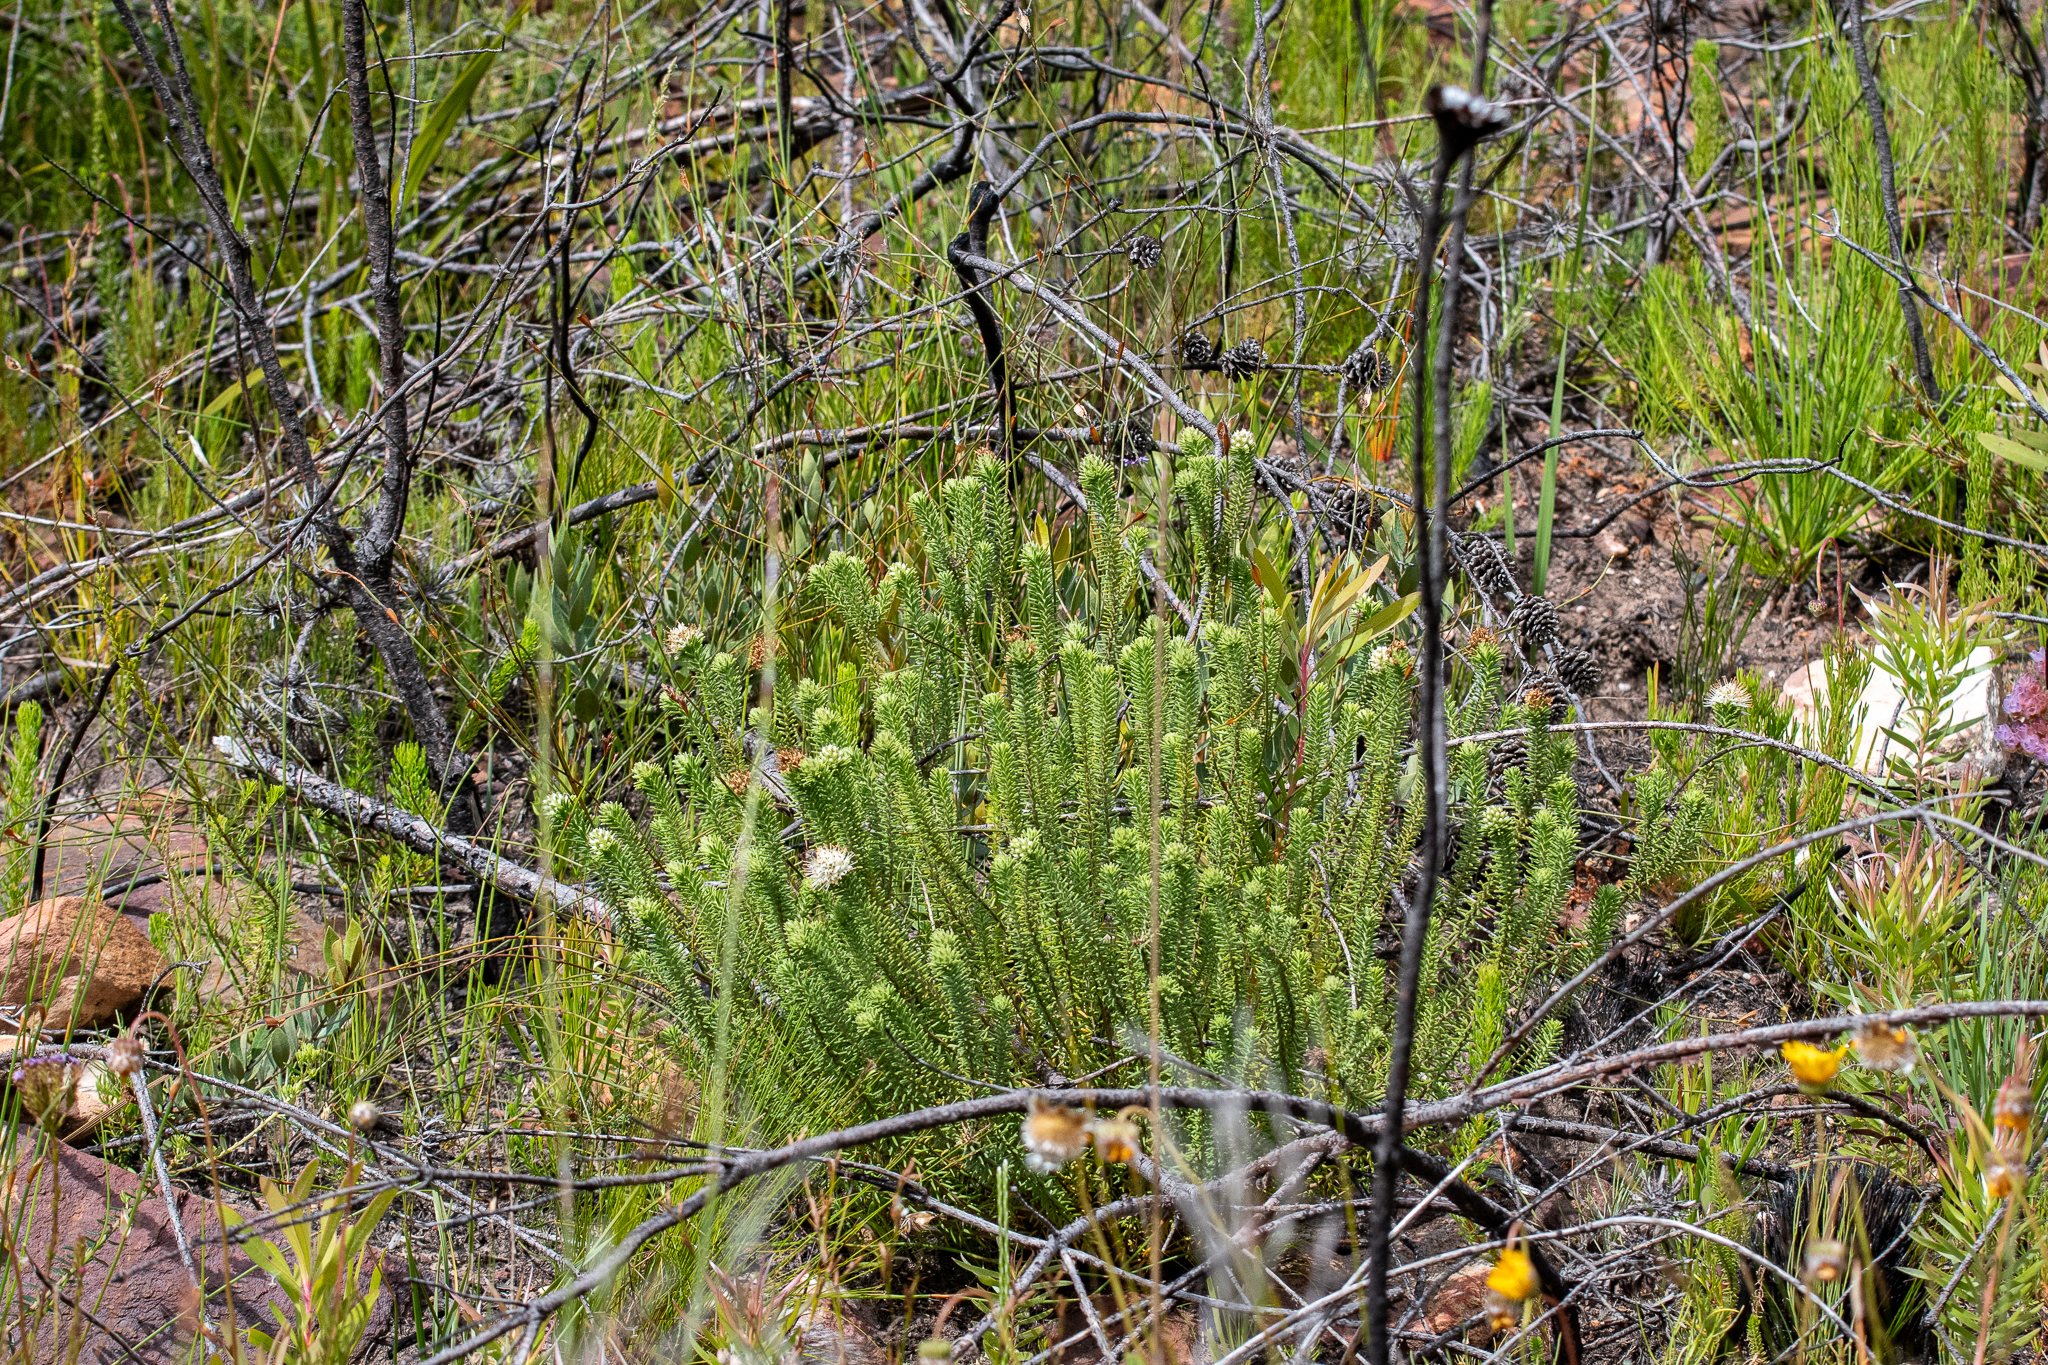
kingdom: Plantae
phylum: Tracheophyta
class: Magnoliopsida
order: Lamiales
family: Stilbaceae
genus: Campylostachys
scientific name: Campylostachys cernua
